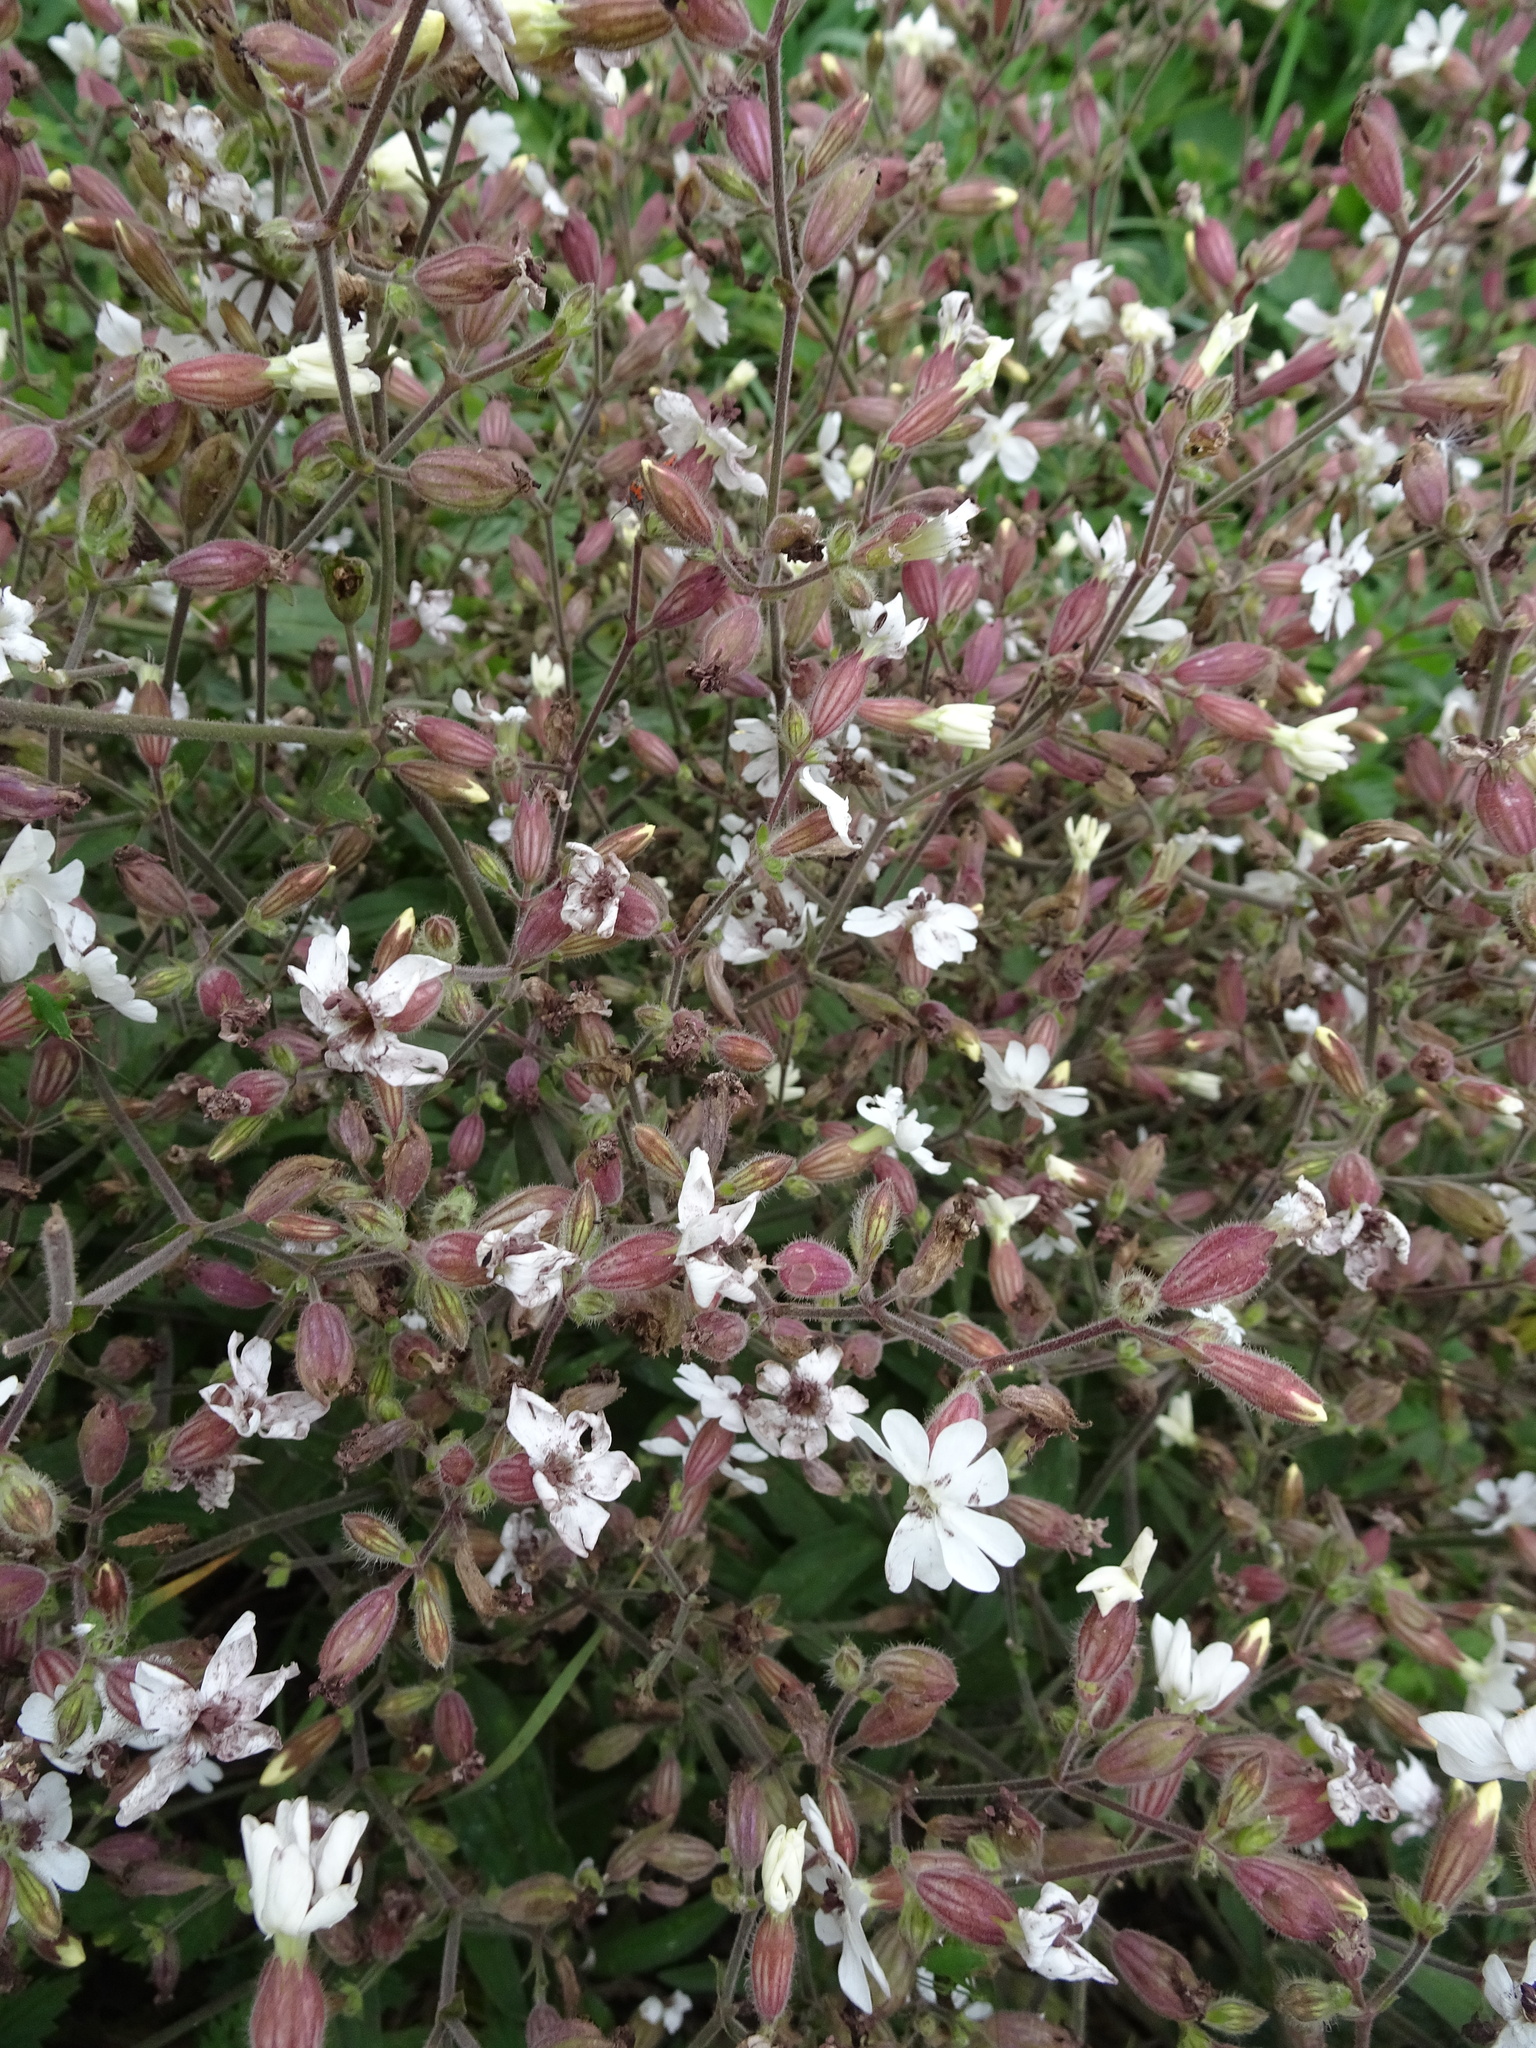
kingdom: Plantae
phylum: Tracheophyta
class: Magnoliopsida
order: Caryophyllales
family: Caryophyllaceae
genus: Silene
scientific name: Silene latifolia
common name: White campion
